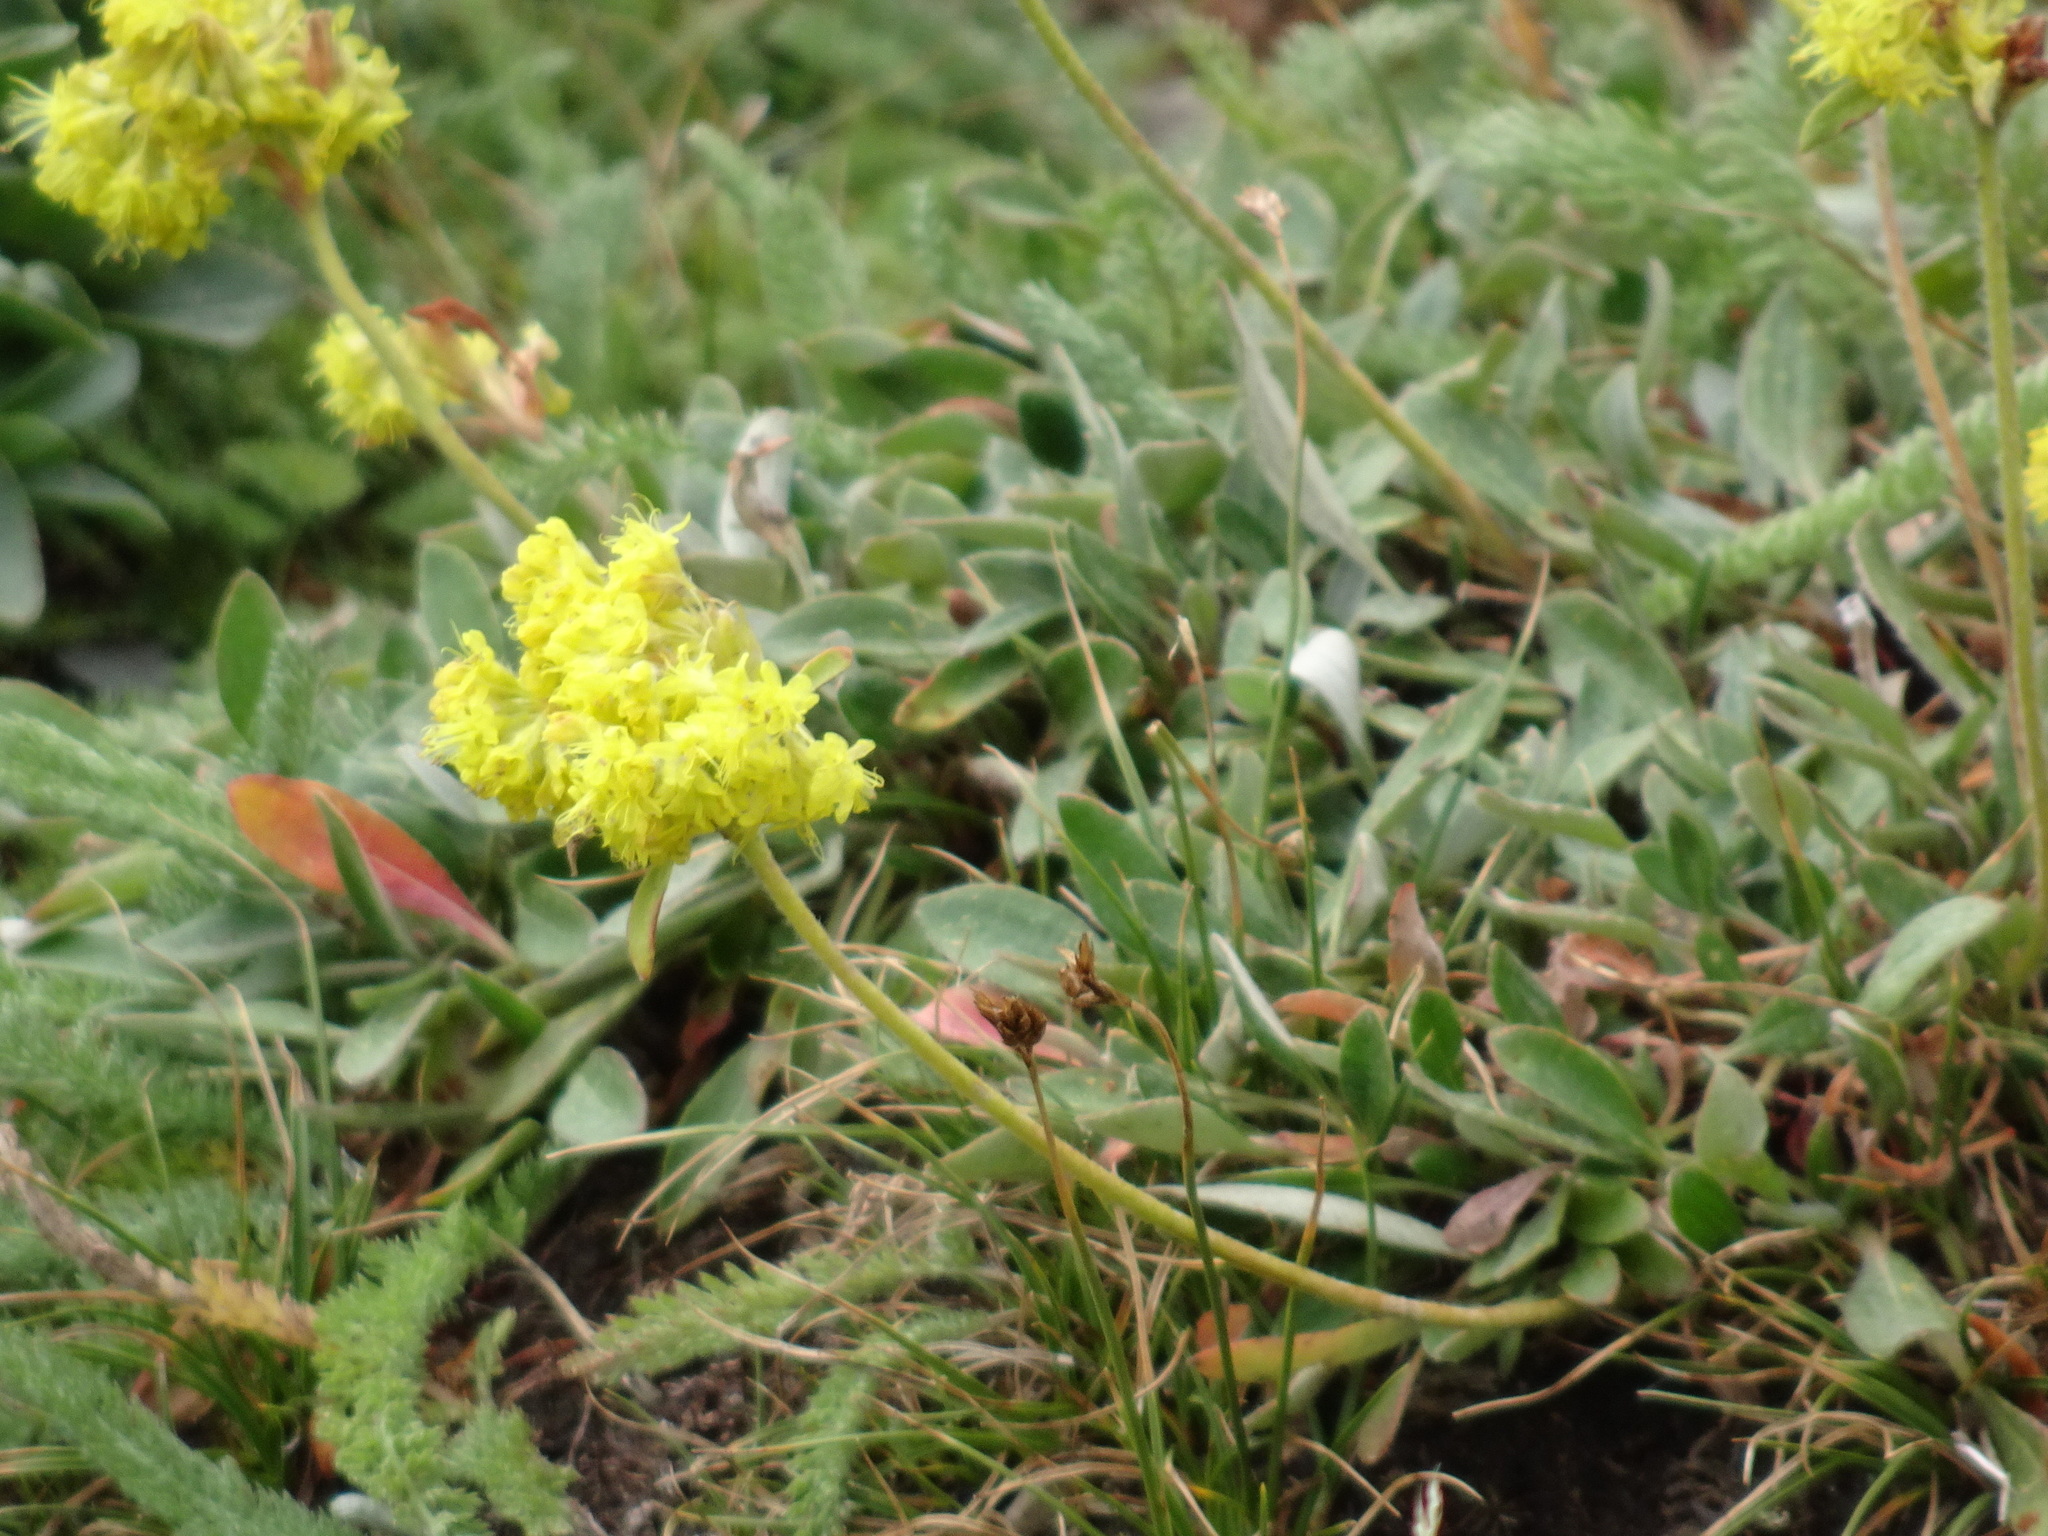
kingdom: Plantae
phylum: Tracheophyta
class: Magnoliopsida
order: Caryophyllales
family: Polygonaceae
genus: Eriogonum
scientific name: Eriogonum flavum
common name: Alpine golden wild buckwheat
